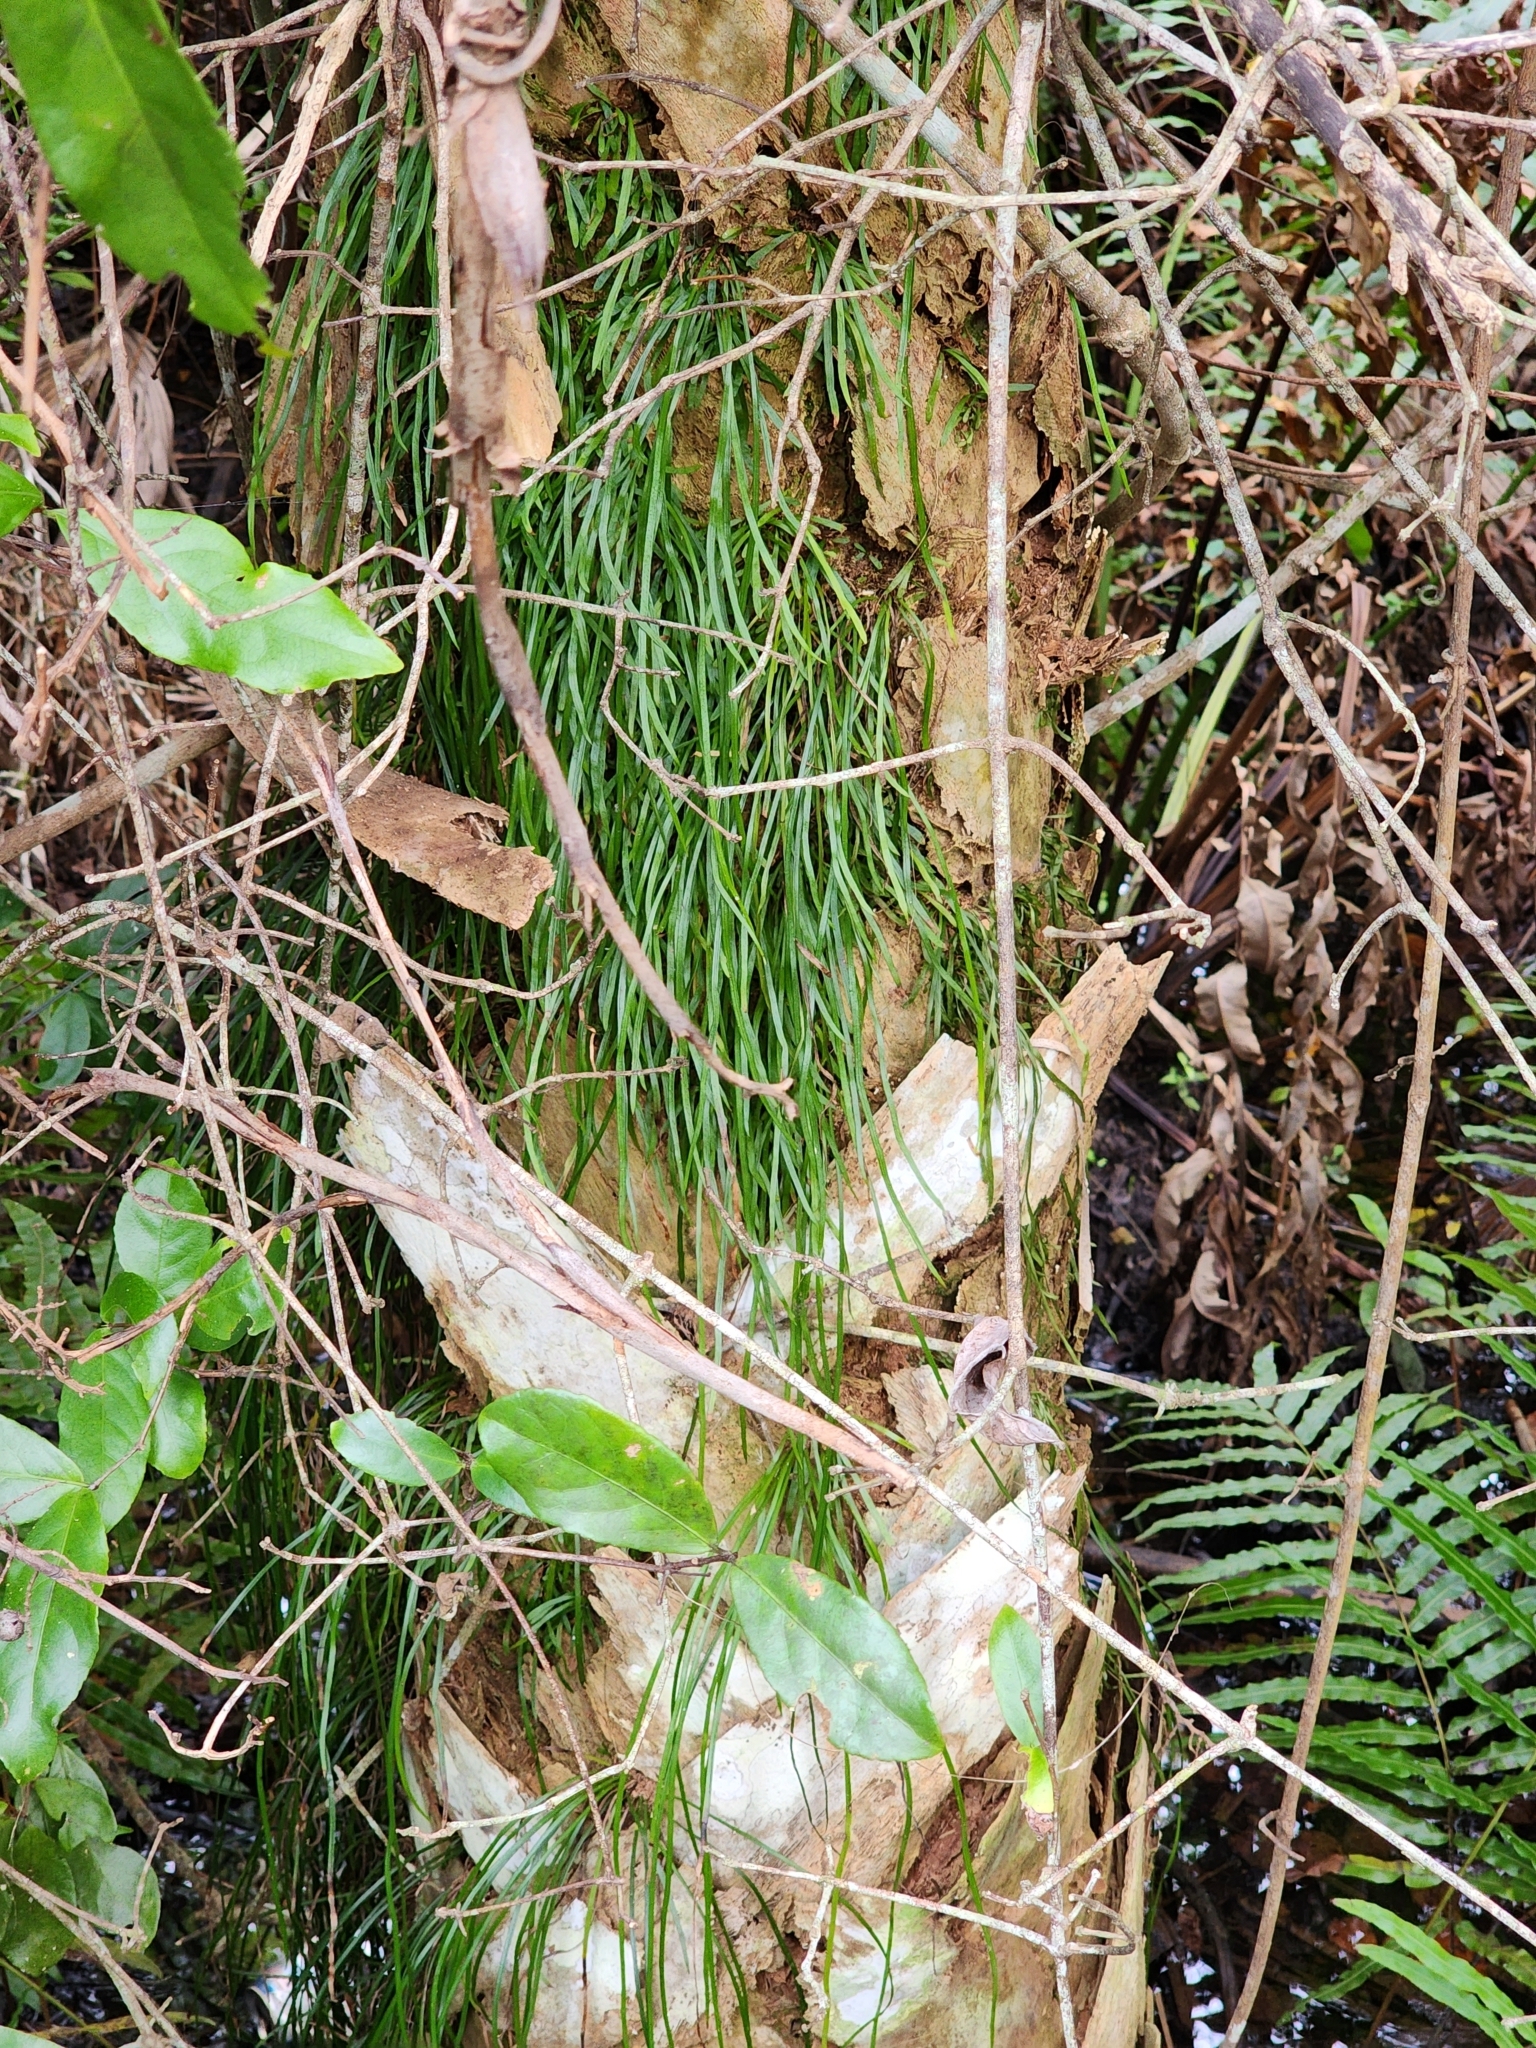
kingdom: Plantae
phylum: Tracheophyta
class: Polypodiopsida
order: Polypodiales
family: Pteridaceae
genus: Vittaria
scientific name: Vittaria lineata
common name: Shoestring fern
